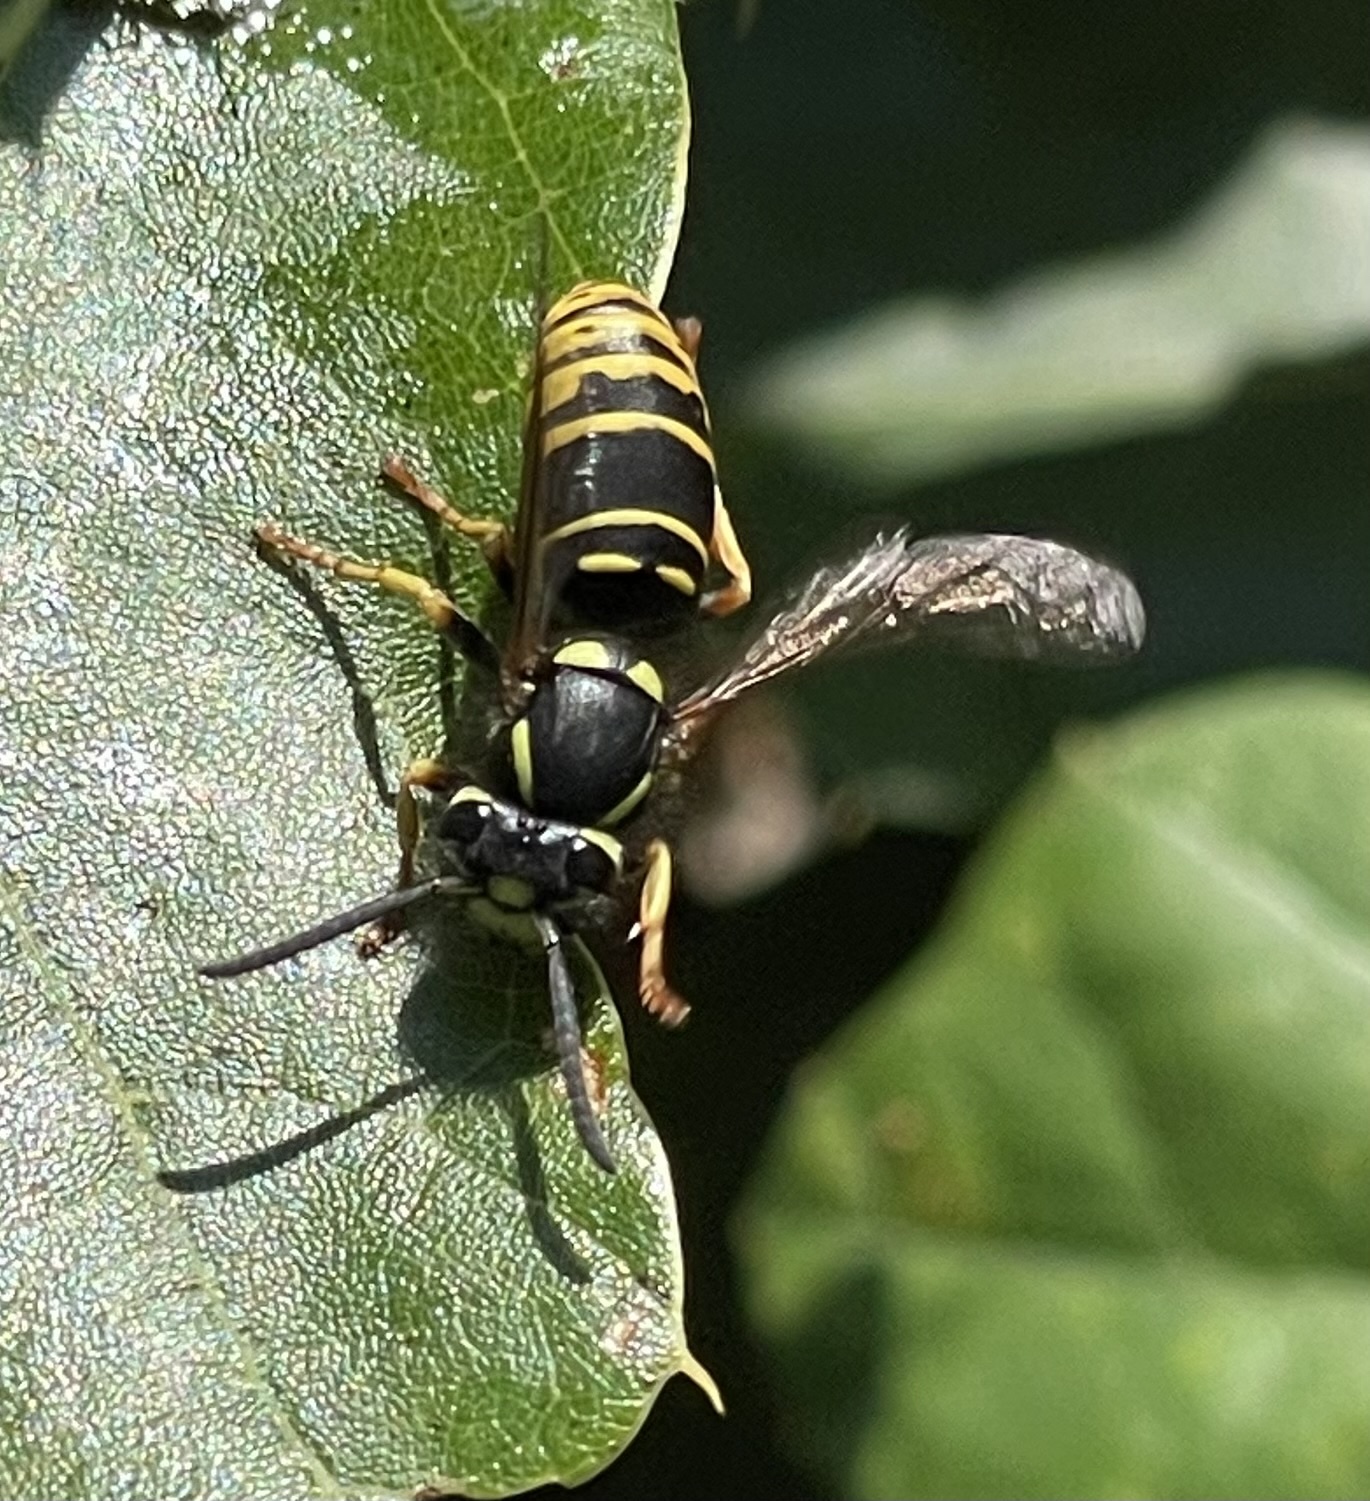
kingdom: Animalia
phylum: Arthropoda
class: Insecta
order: Hymenoptera
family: Vespidae
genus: Vespula
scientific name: Vespula vidua
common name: Widow yellowjacket
